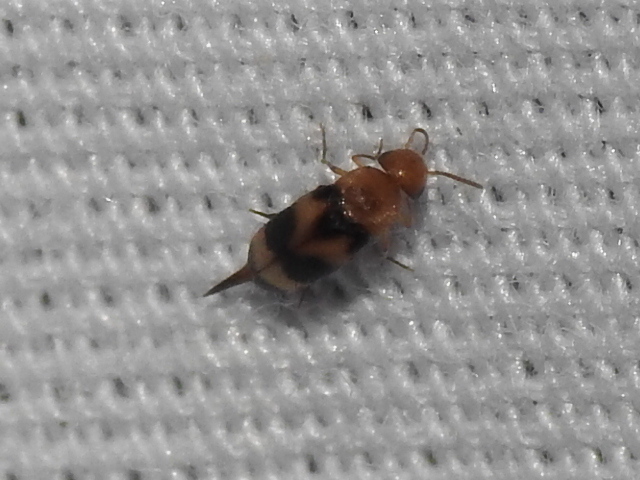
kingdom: Animalia
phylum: Arthropoda
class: Insecta
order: Coleoptera
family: Mordellidae
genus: Mordellistena
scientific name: Mordellistena trifasciata
